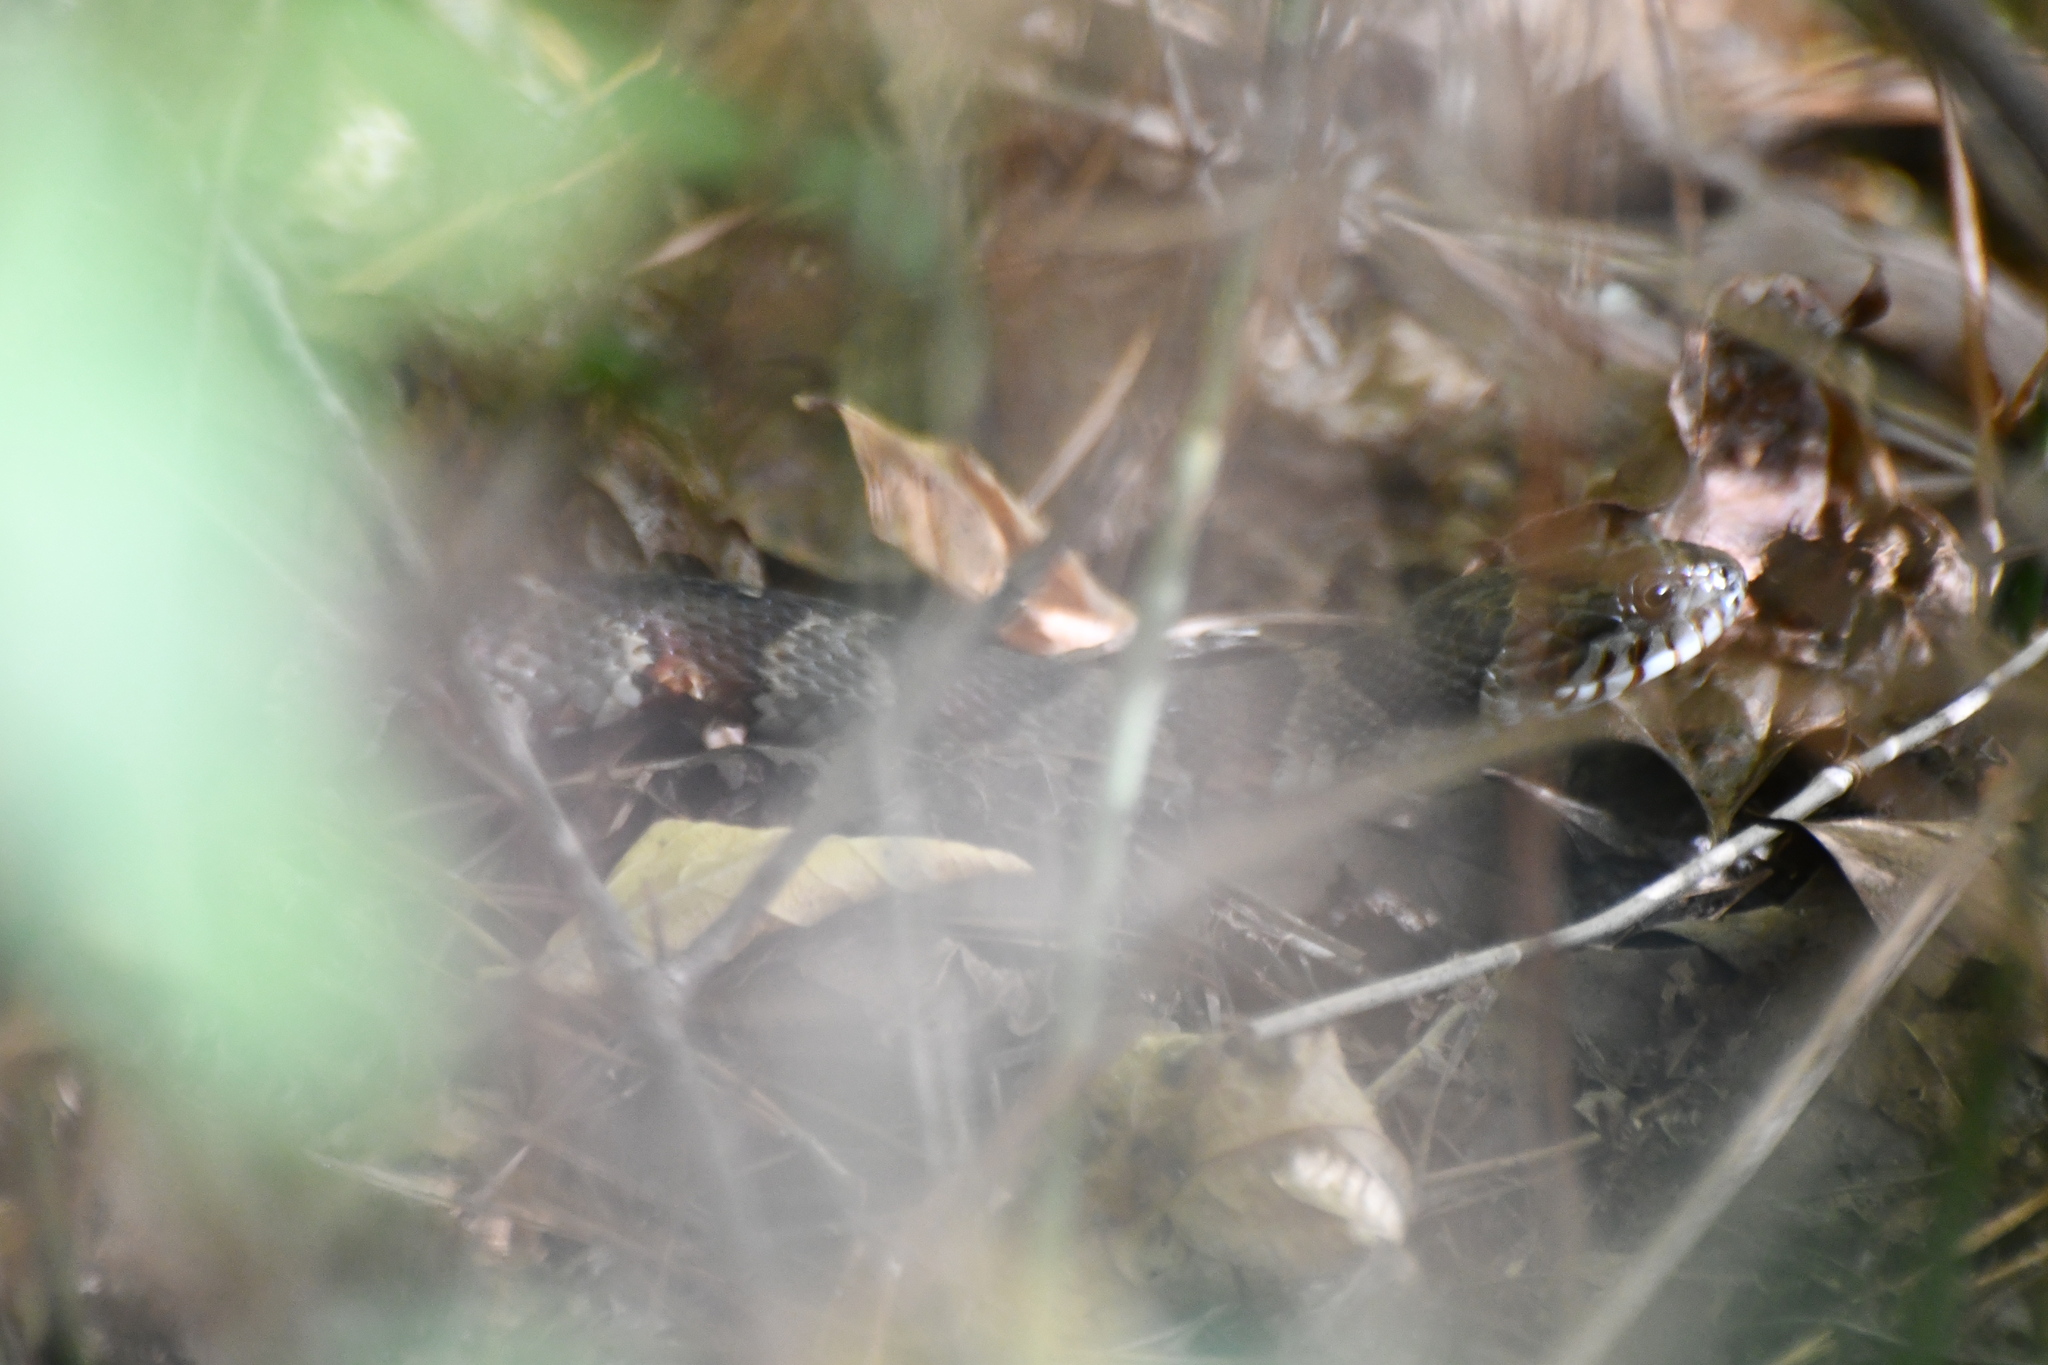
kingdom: Animalia
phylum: Chordata
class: Squamata
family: Colubridae
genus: Nerodia
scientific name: Nerodia sipedon
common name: Northern water snake
